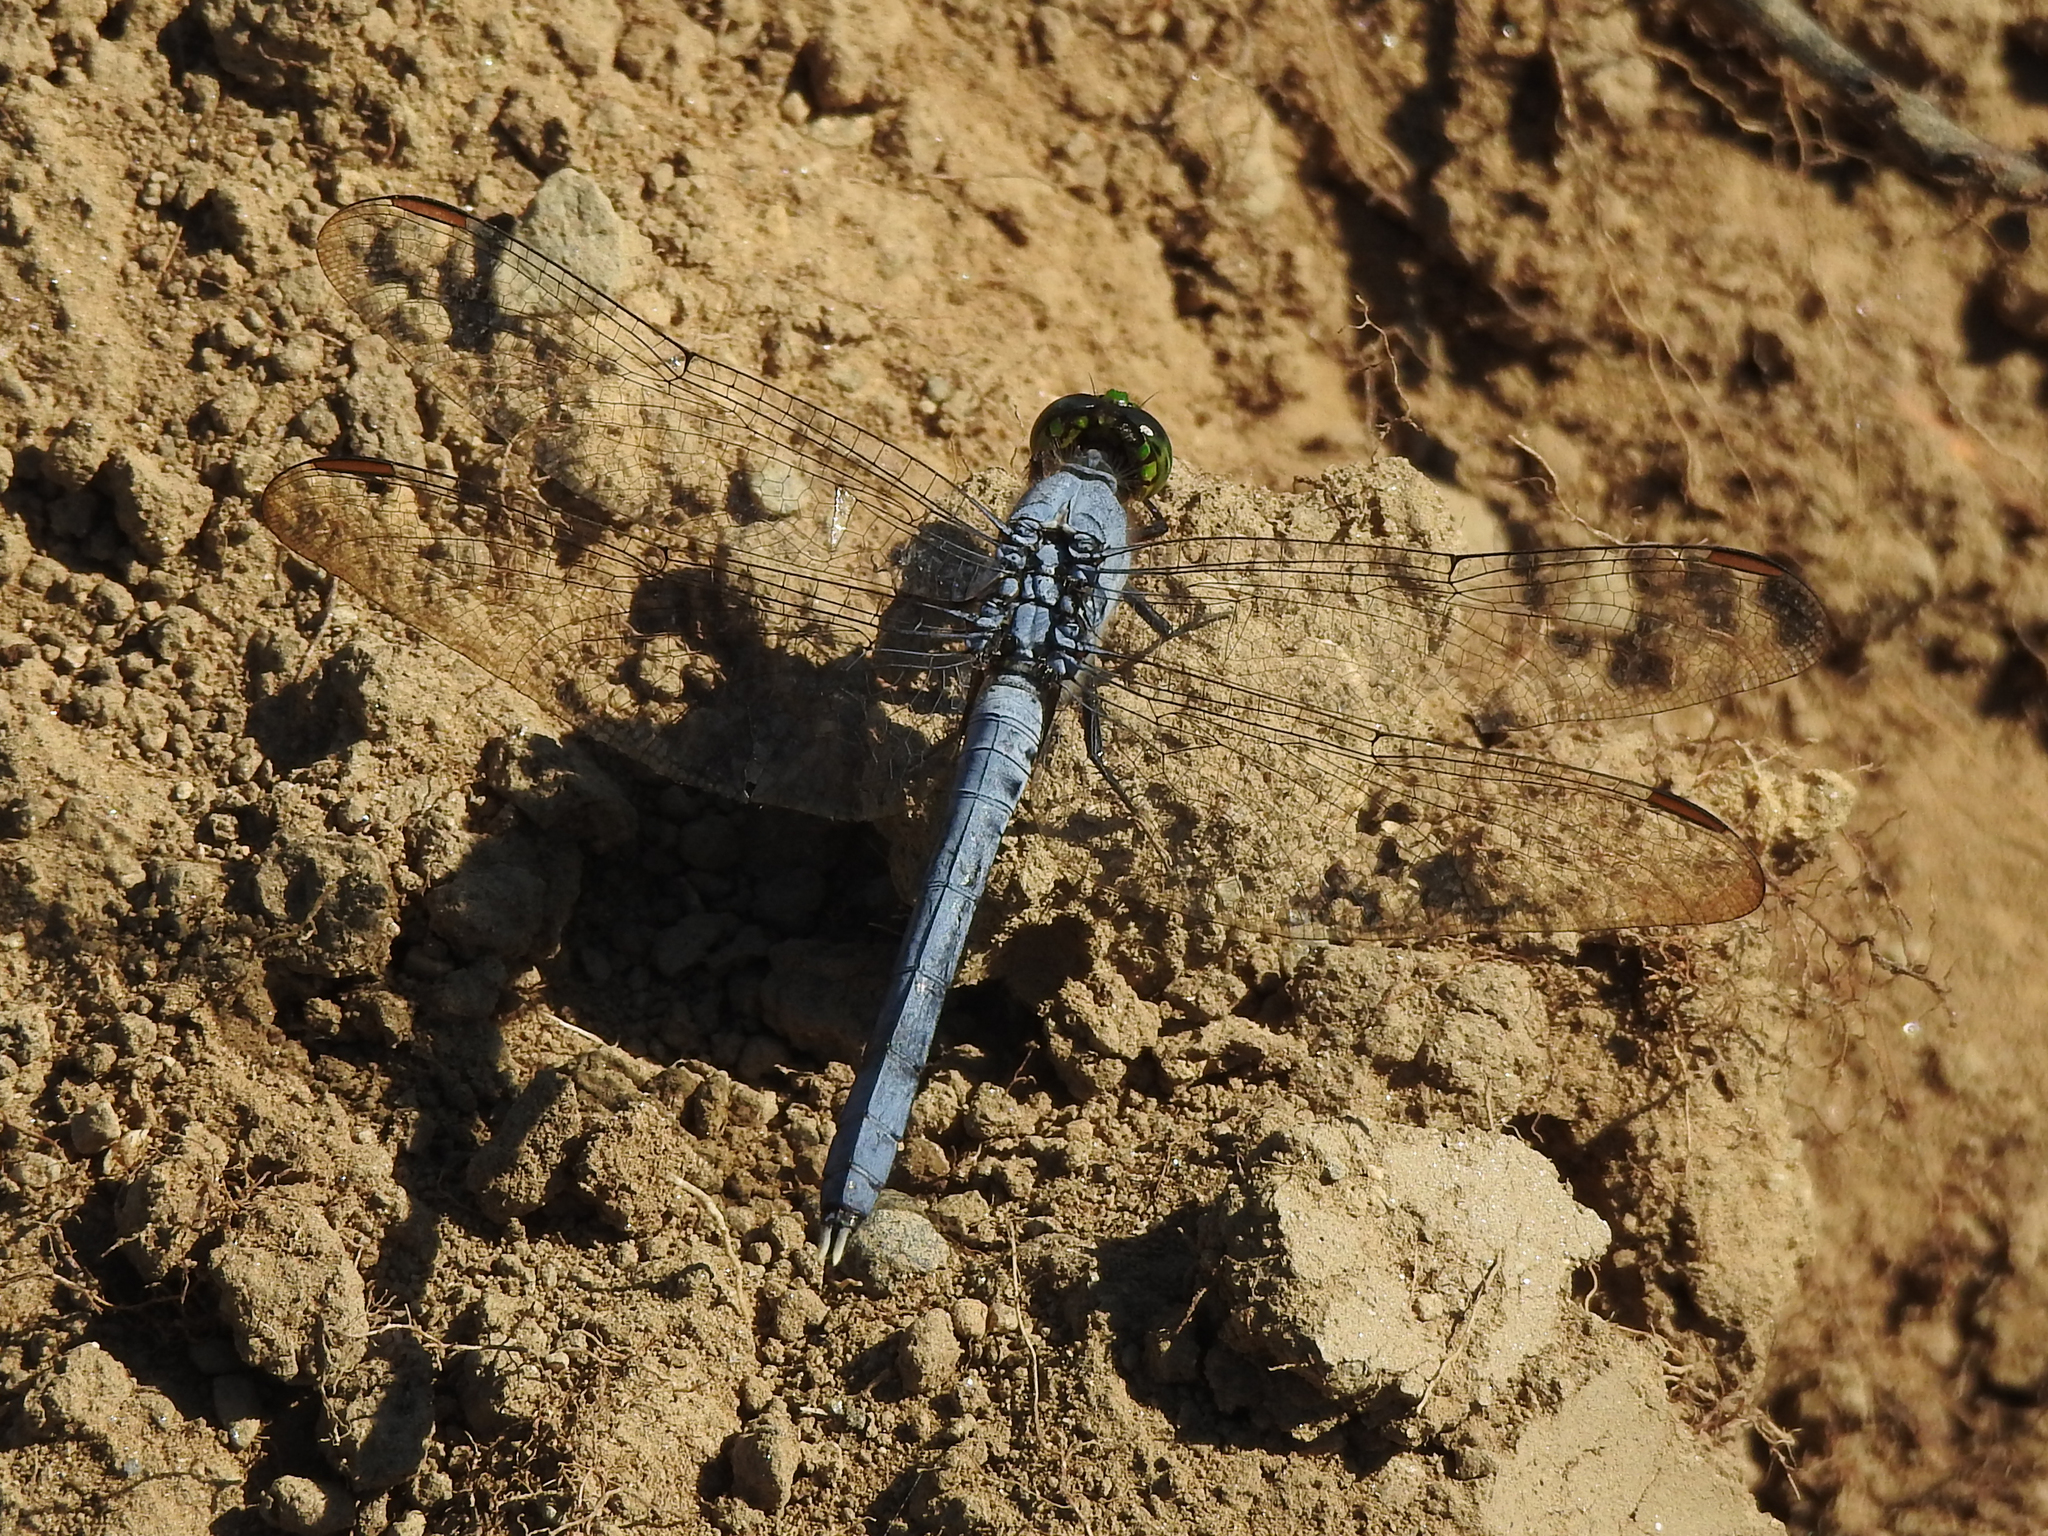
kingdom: Animalia
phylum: Arthropoda
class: Insecta
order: Odonata
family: Libellulidae
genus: Erythemis
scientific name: Erythemis simplicicollis
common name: Eastern pondhawk
